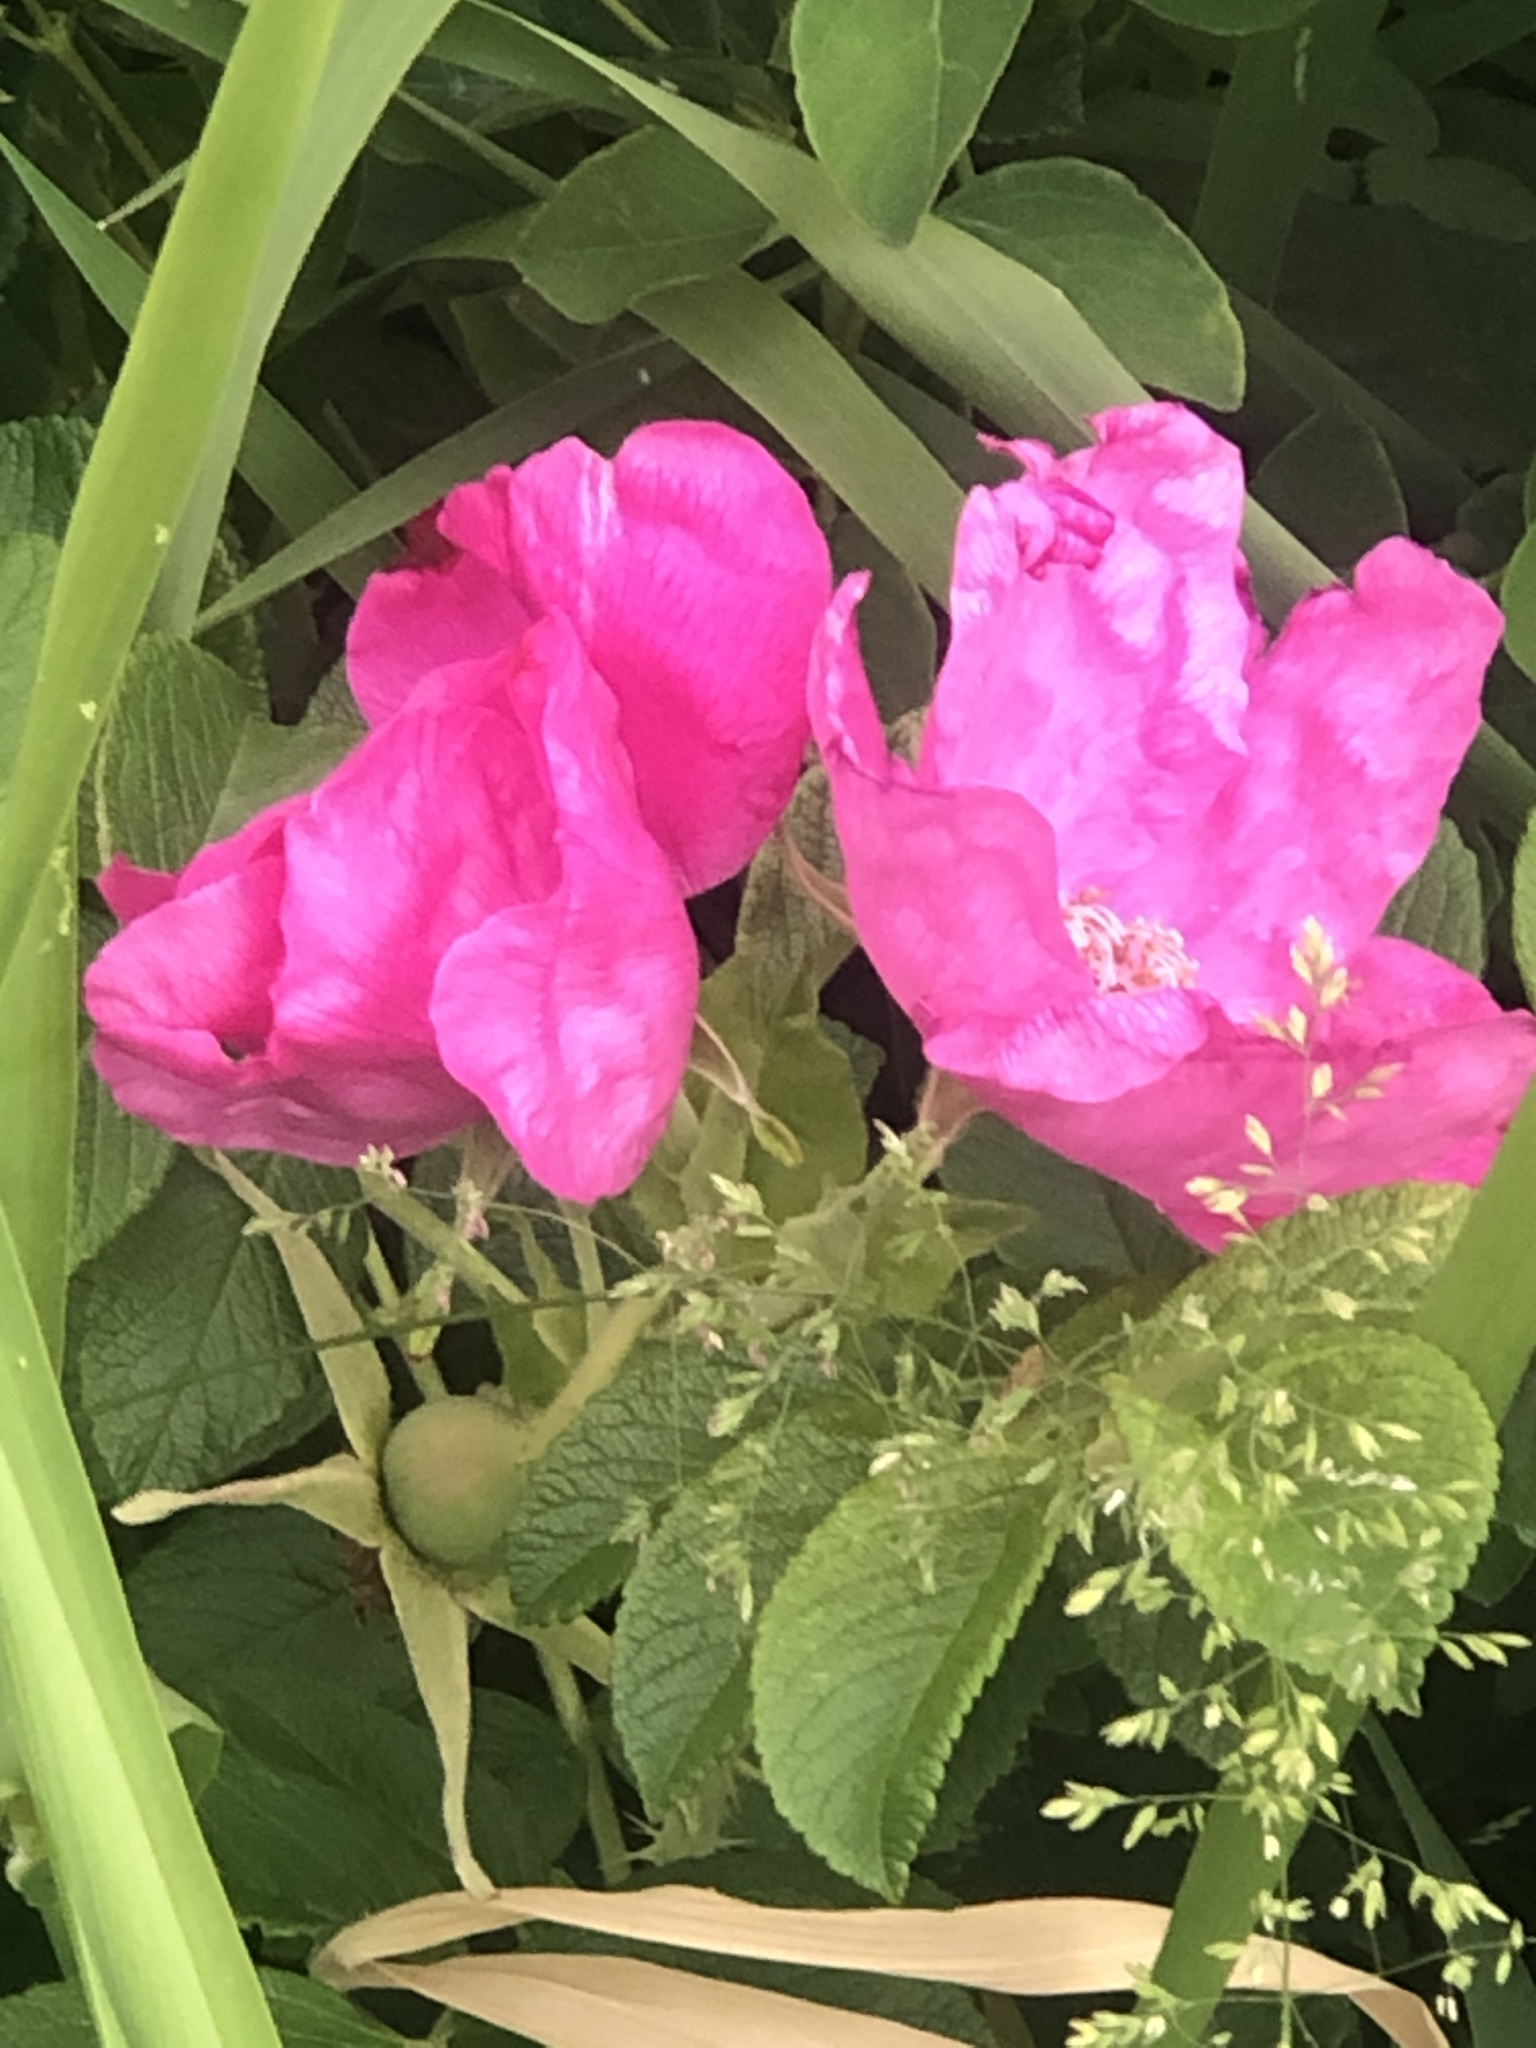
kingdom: Plantae
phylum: Tracheophyta
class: Magnoliopsida
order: Rosales
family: Rosaceae
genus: Rosa
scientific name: Rosa rugosa
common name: Japanese rose
